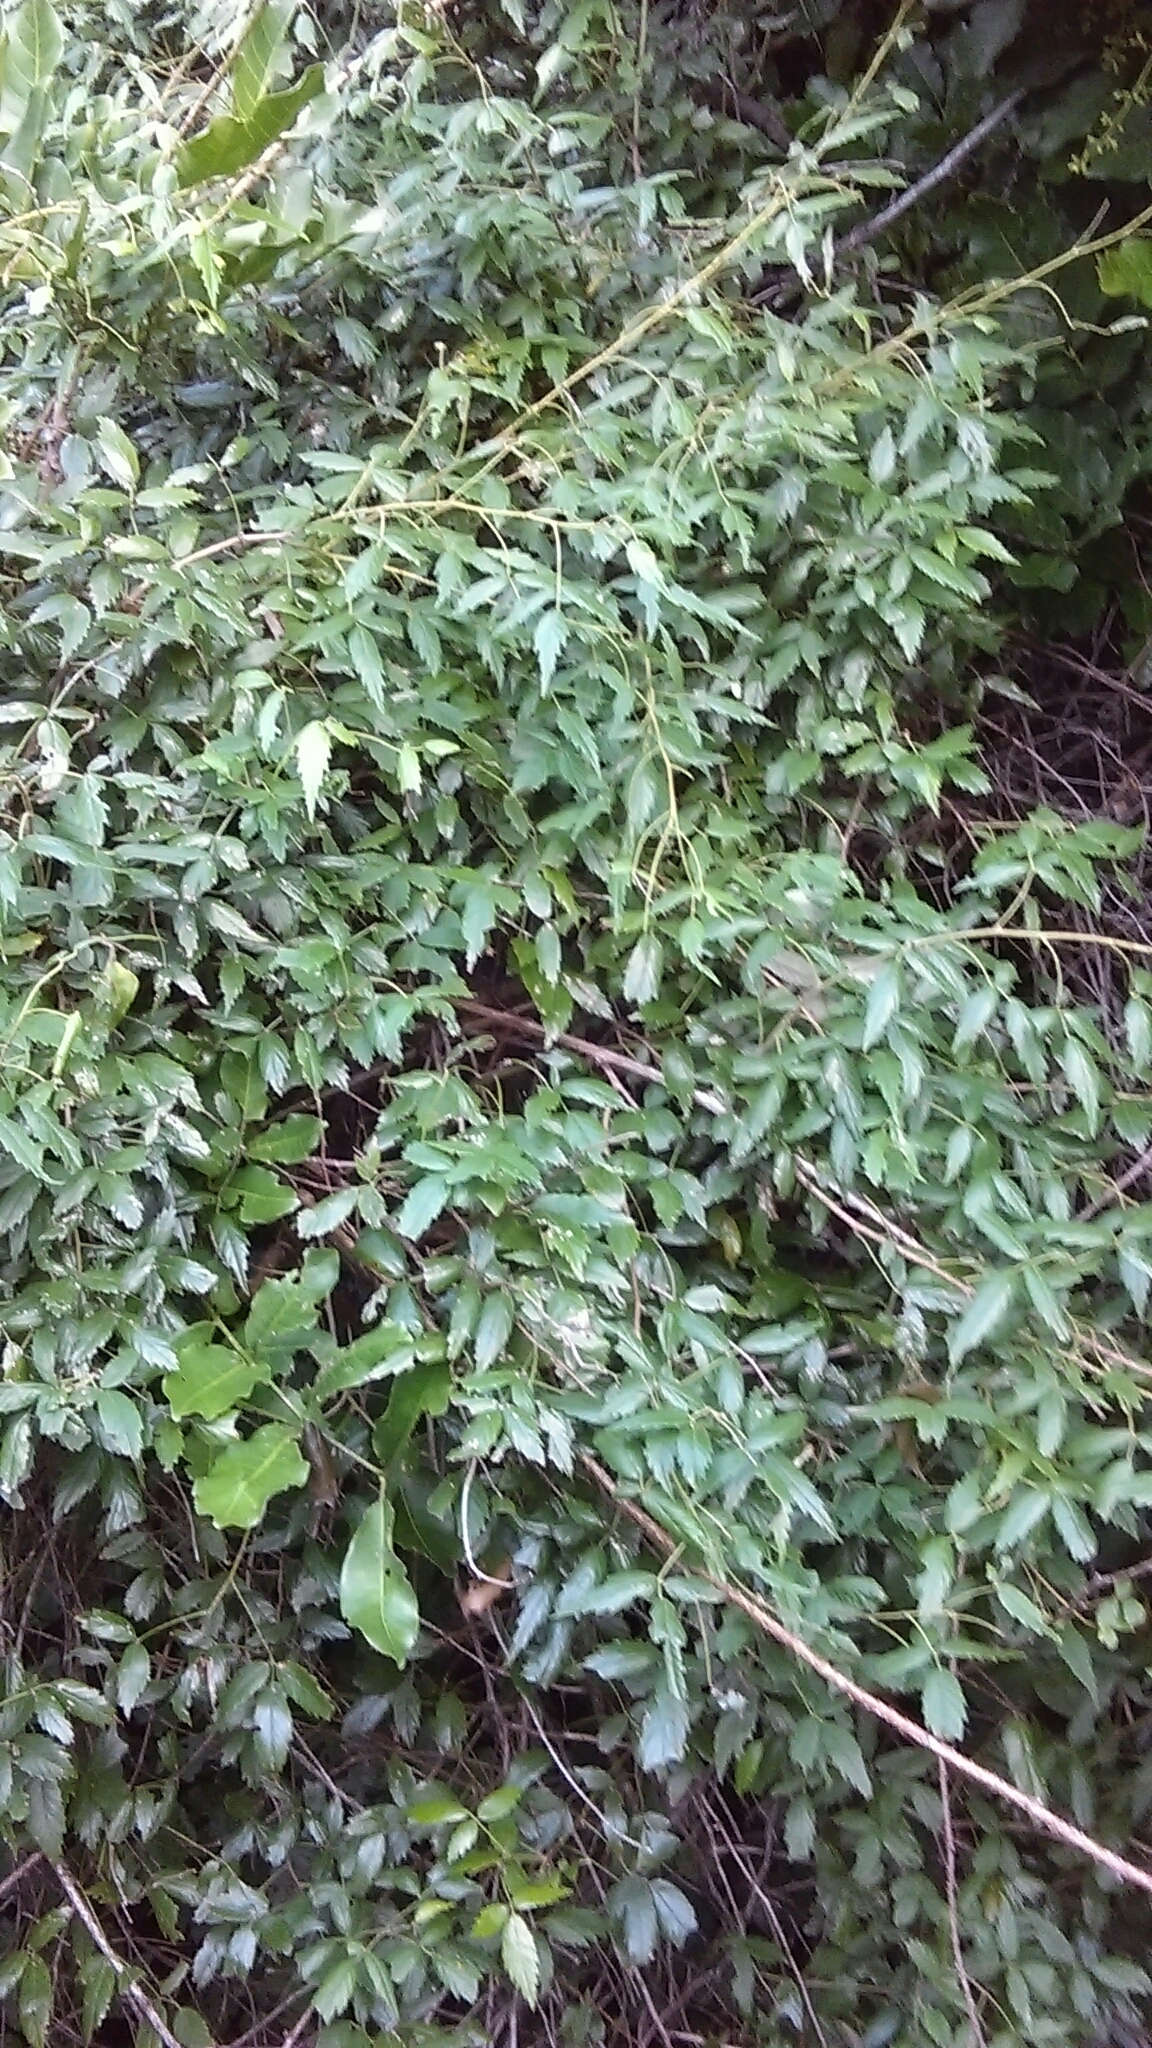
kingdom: Plantae
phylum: Tracheophyta
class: Magnoliopsida
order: Rosales
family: Rosaceae
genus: Rubus
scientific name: Rubus schmidelioides
